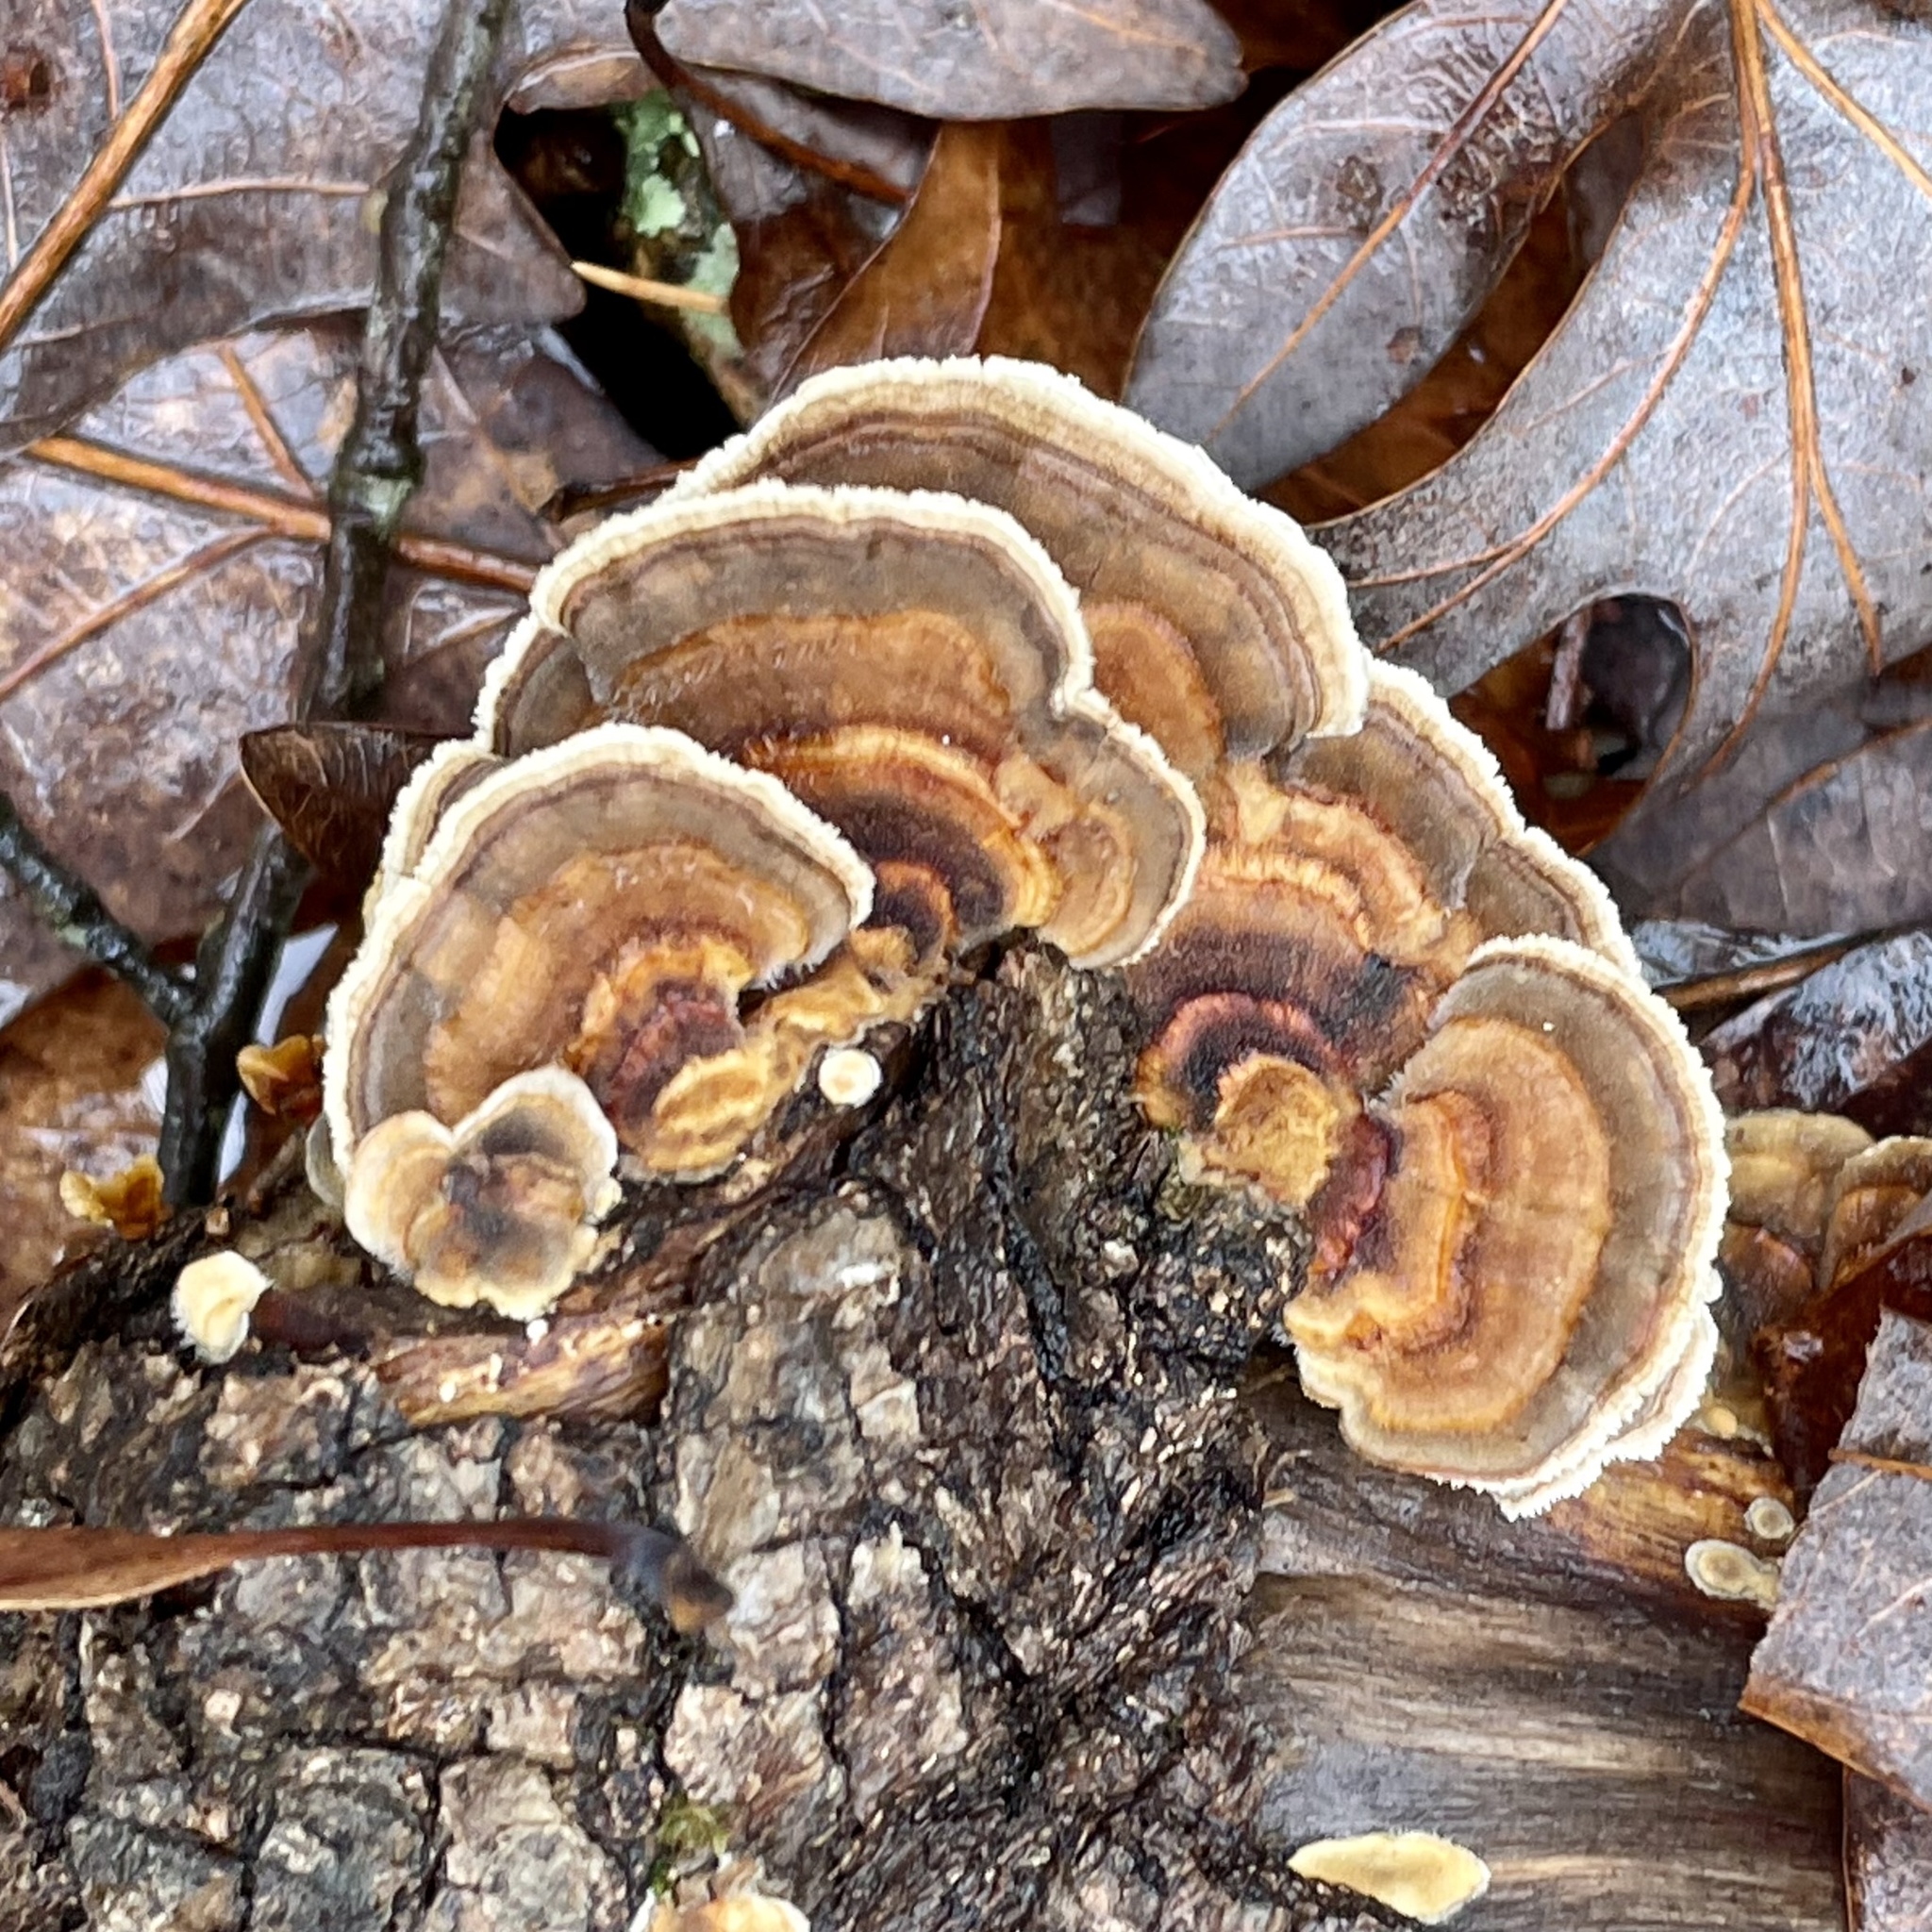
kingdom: Fungi
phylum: Basidiomycota
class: Agaricomycetes
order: Polyporales
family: Polyporaceae
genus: Trametes
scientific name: Trametes versicolor
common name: Turkeytail
